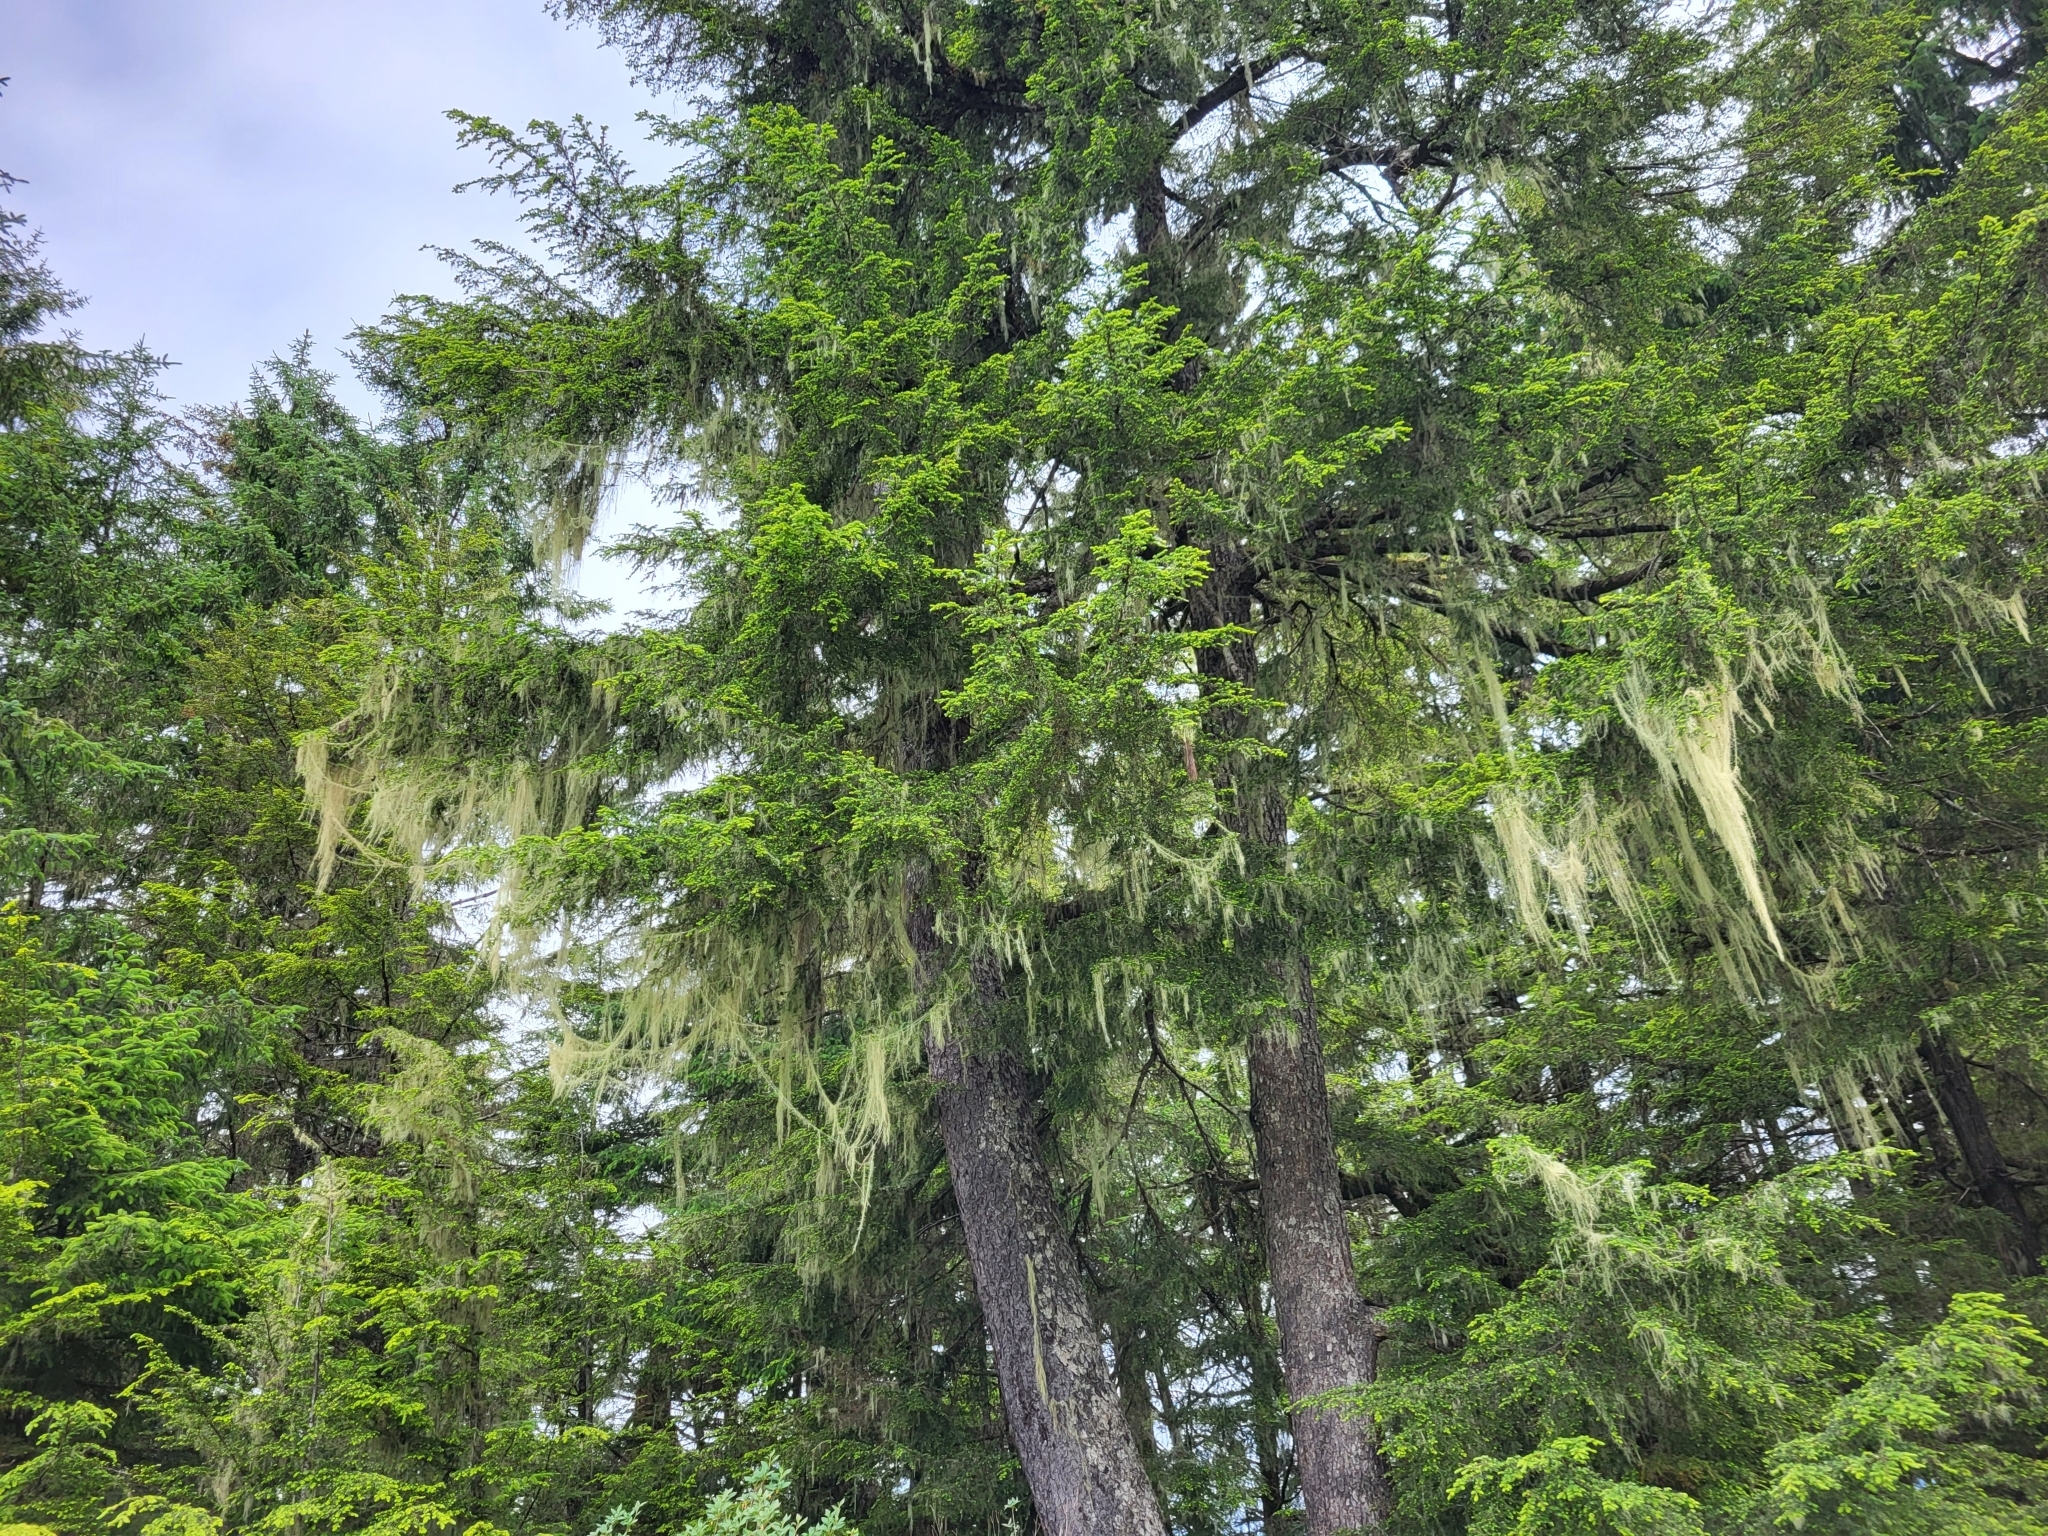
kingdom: Fungi
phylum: Ascomycota
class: Lecanoromycetes
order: Lecanorales
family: Parmeliaceae
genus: Dolichousnea
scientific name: Dolichousnea longissima
